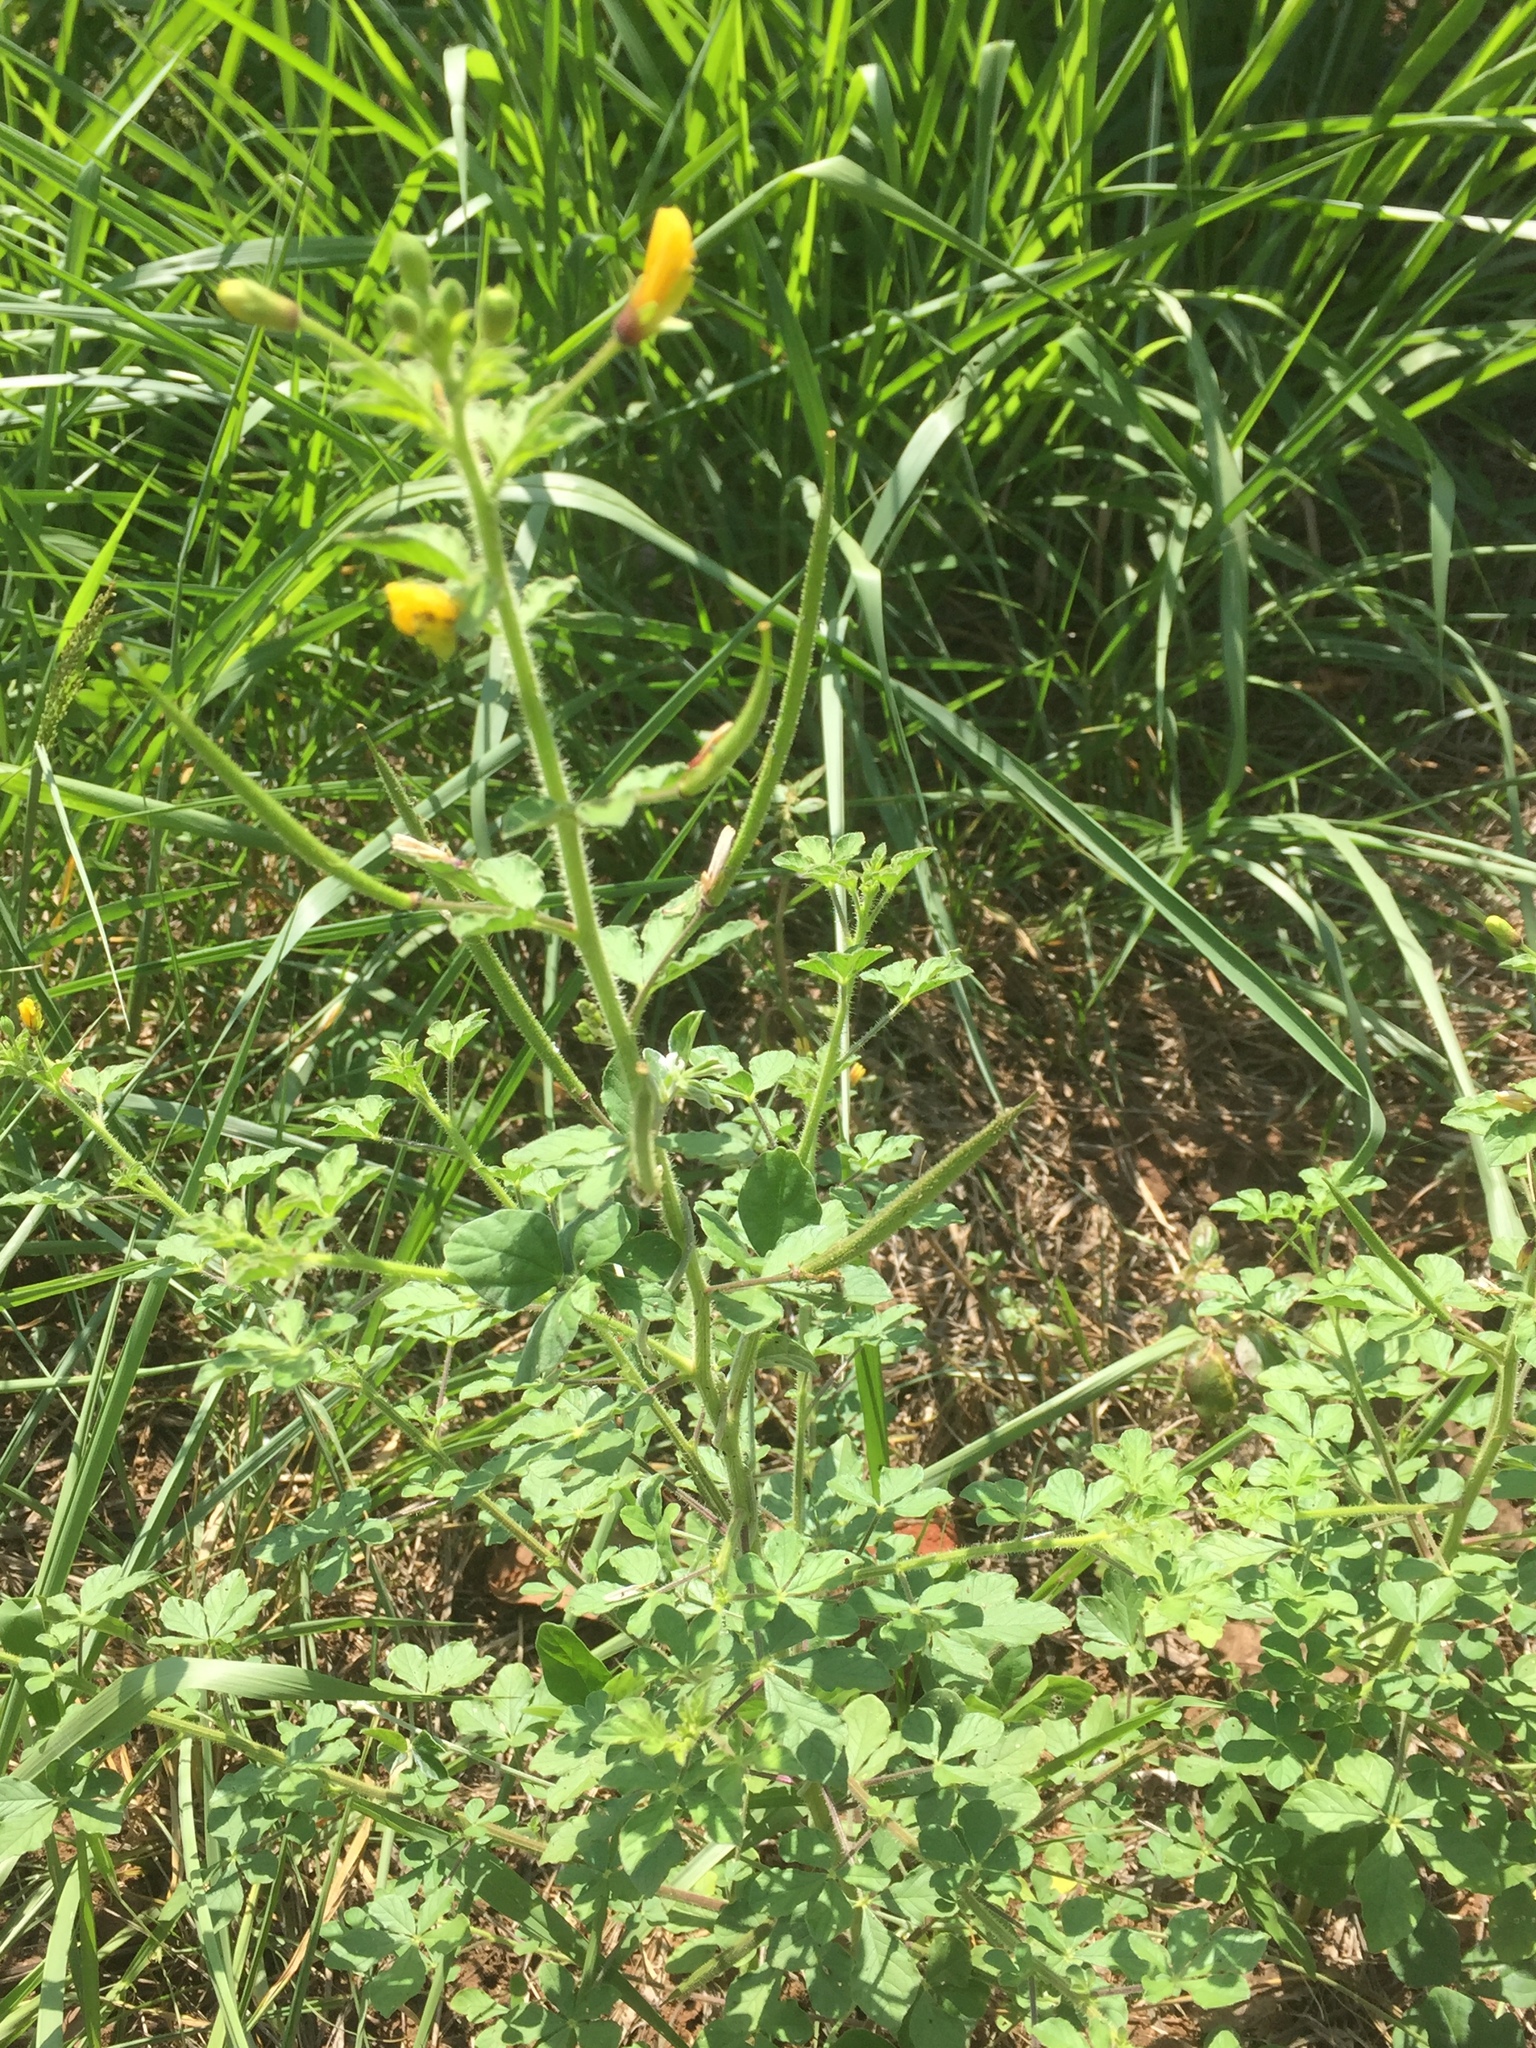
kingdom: Plantae
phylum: Tracheophyta
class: Magnoliopsida
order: Brassicales
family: Cleomaceae
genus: Arivela
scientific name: Arivela viscosa
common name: Asian spiderflower
